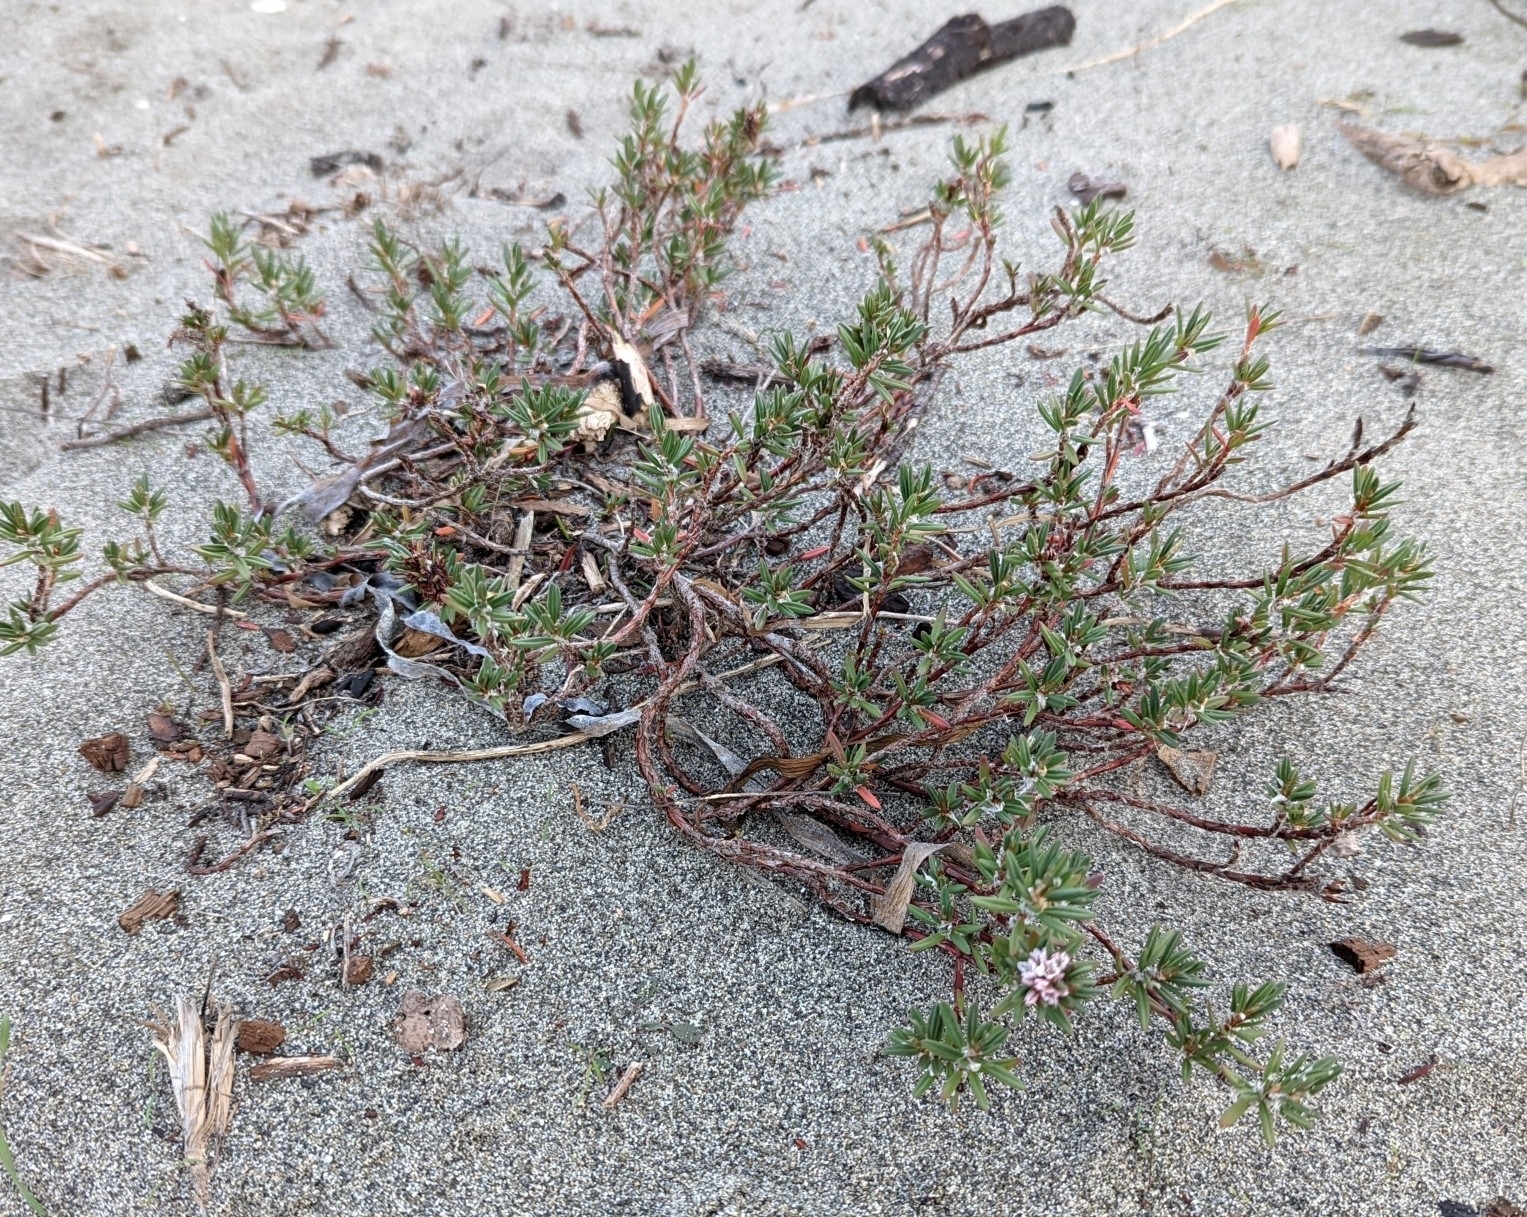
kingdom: Plantae
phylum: Tracheophyta
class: Magnoliopsida
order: Caryophyllales
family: Polygonaceae
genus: Polygonum
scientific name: Polygonum paronychia
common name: Dune knotweed
